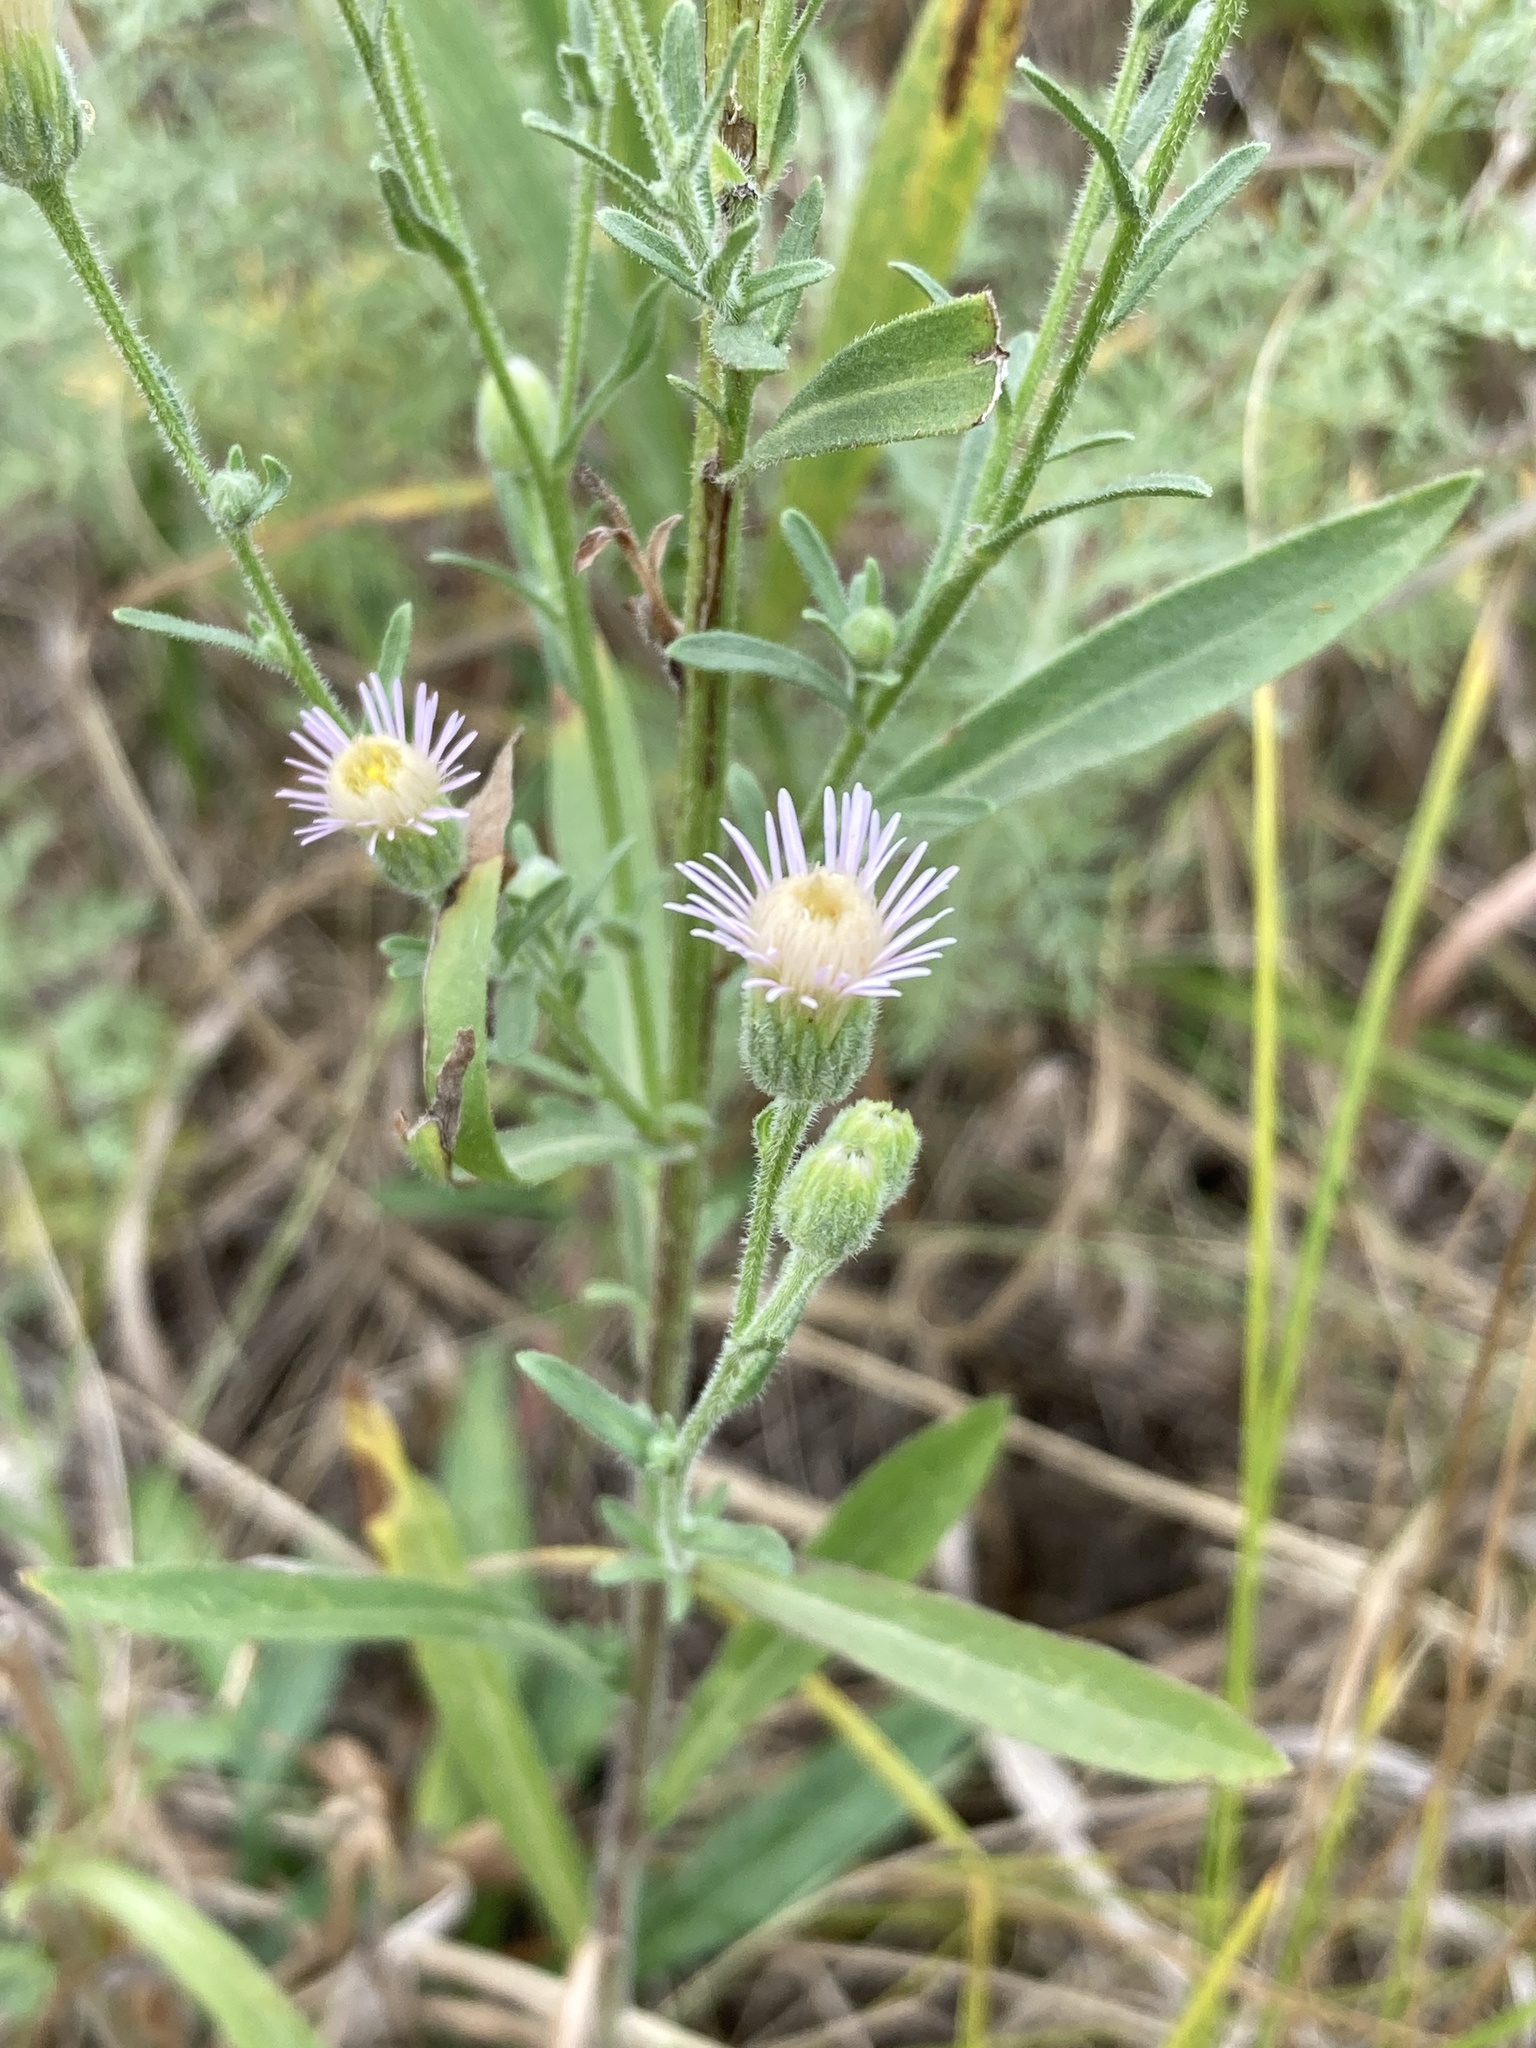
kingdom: Plantae
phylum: Tracheophyta
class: Magnoliopsida
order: Asterales
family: Asteraceae
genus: Erigeron
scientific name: Erigeron acris
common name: Blue fleabane
